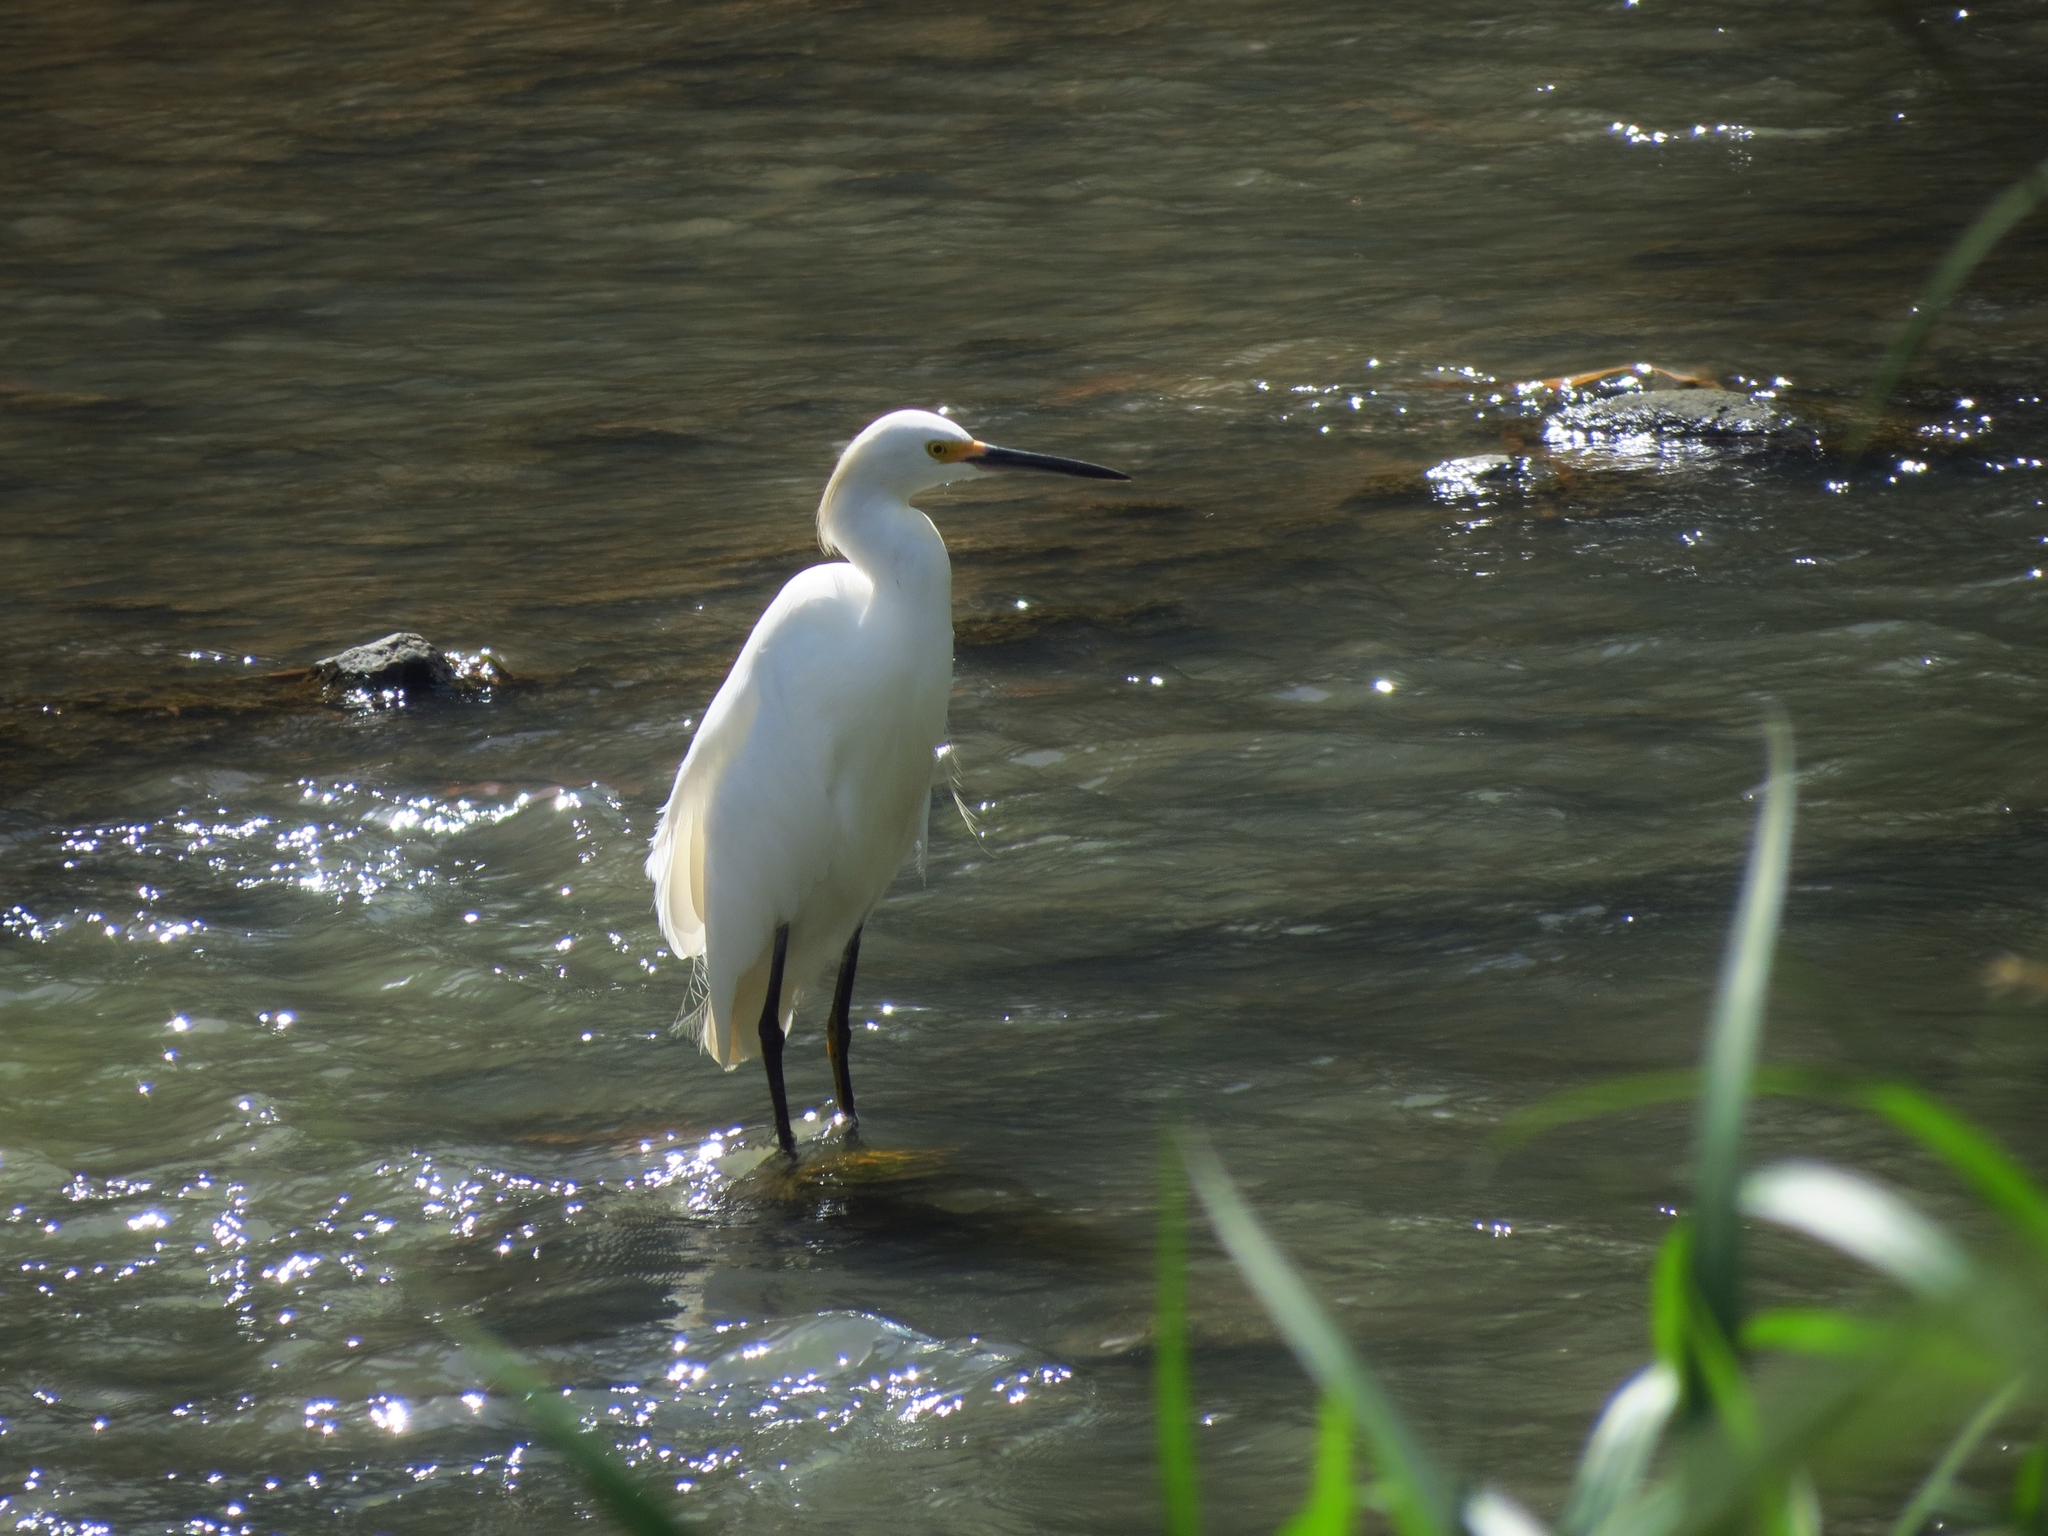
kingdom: Animalia
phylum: Chordata
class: Aves
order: Pelecaniformes
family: Ardeidae
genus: Egretta
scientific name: Egretta thula
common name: Snowy egret
